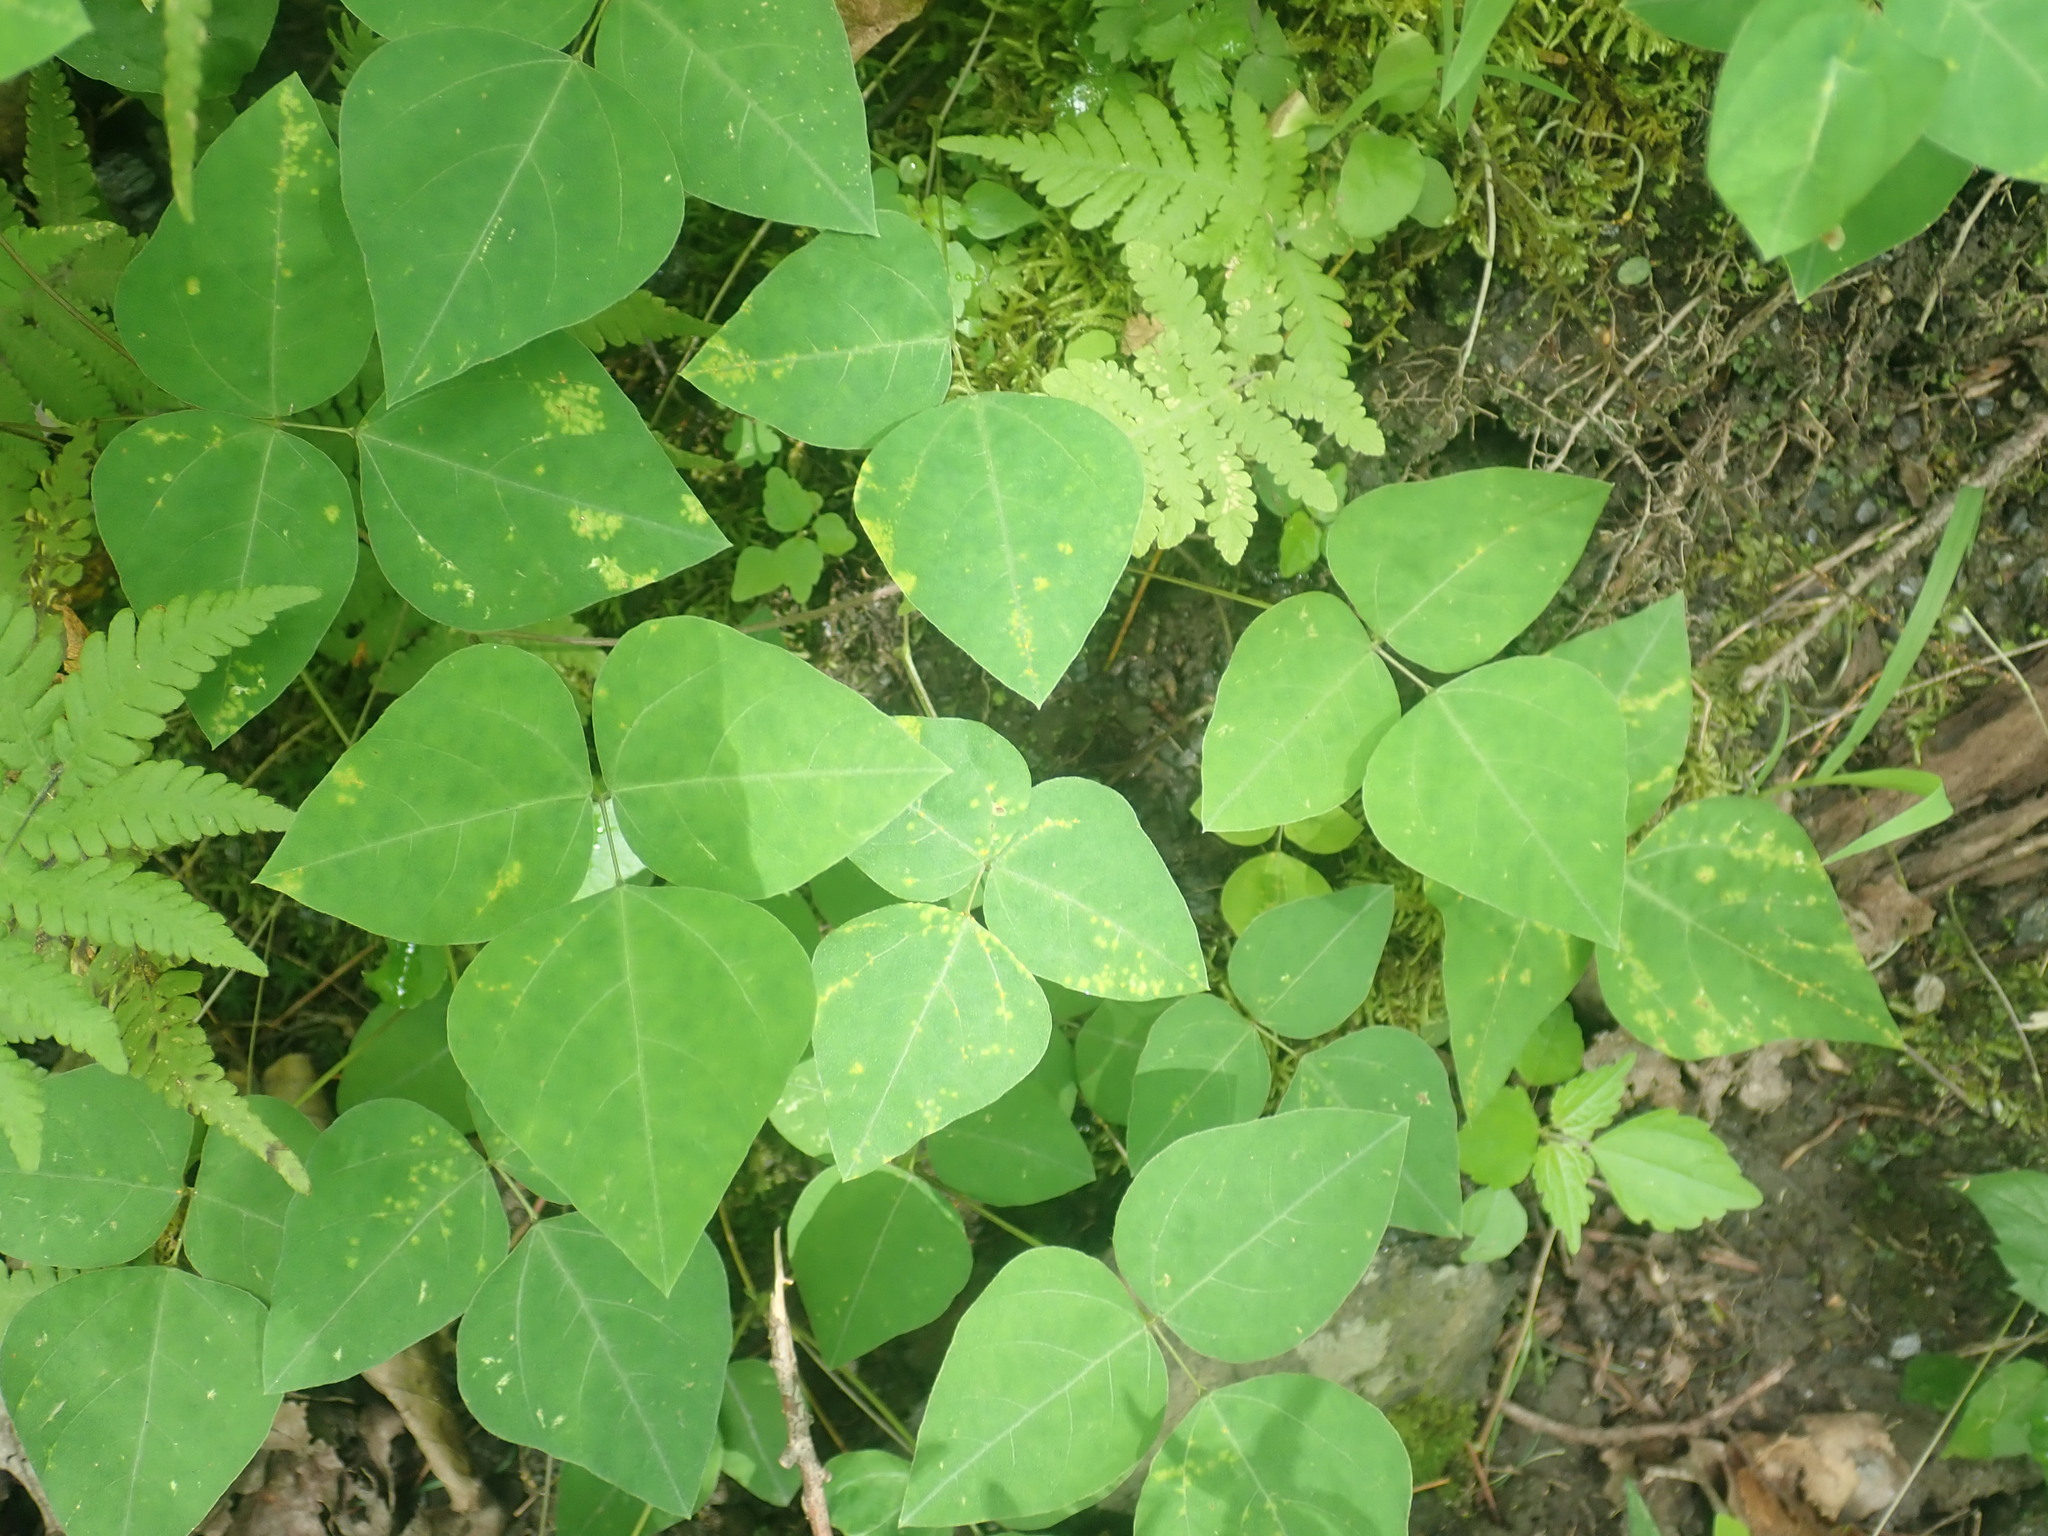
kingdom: Plantae
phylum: Tracheophyta
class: Magnoliopsida
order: Fabales
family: Fabaceae
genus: Amphicarpaea
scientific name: Amphicarpaea bracteata
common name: American hog peanut
